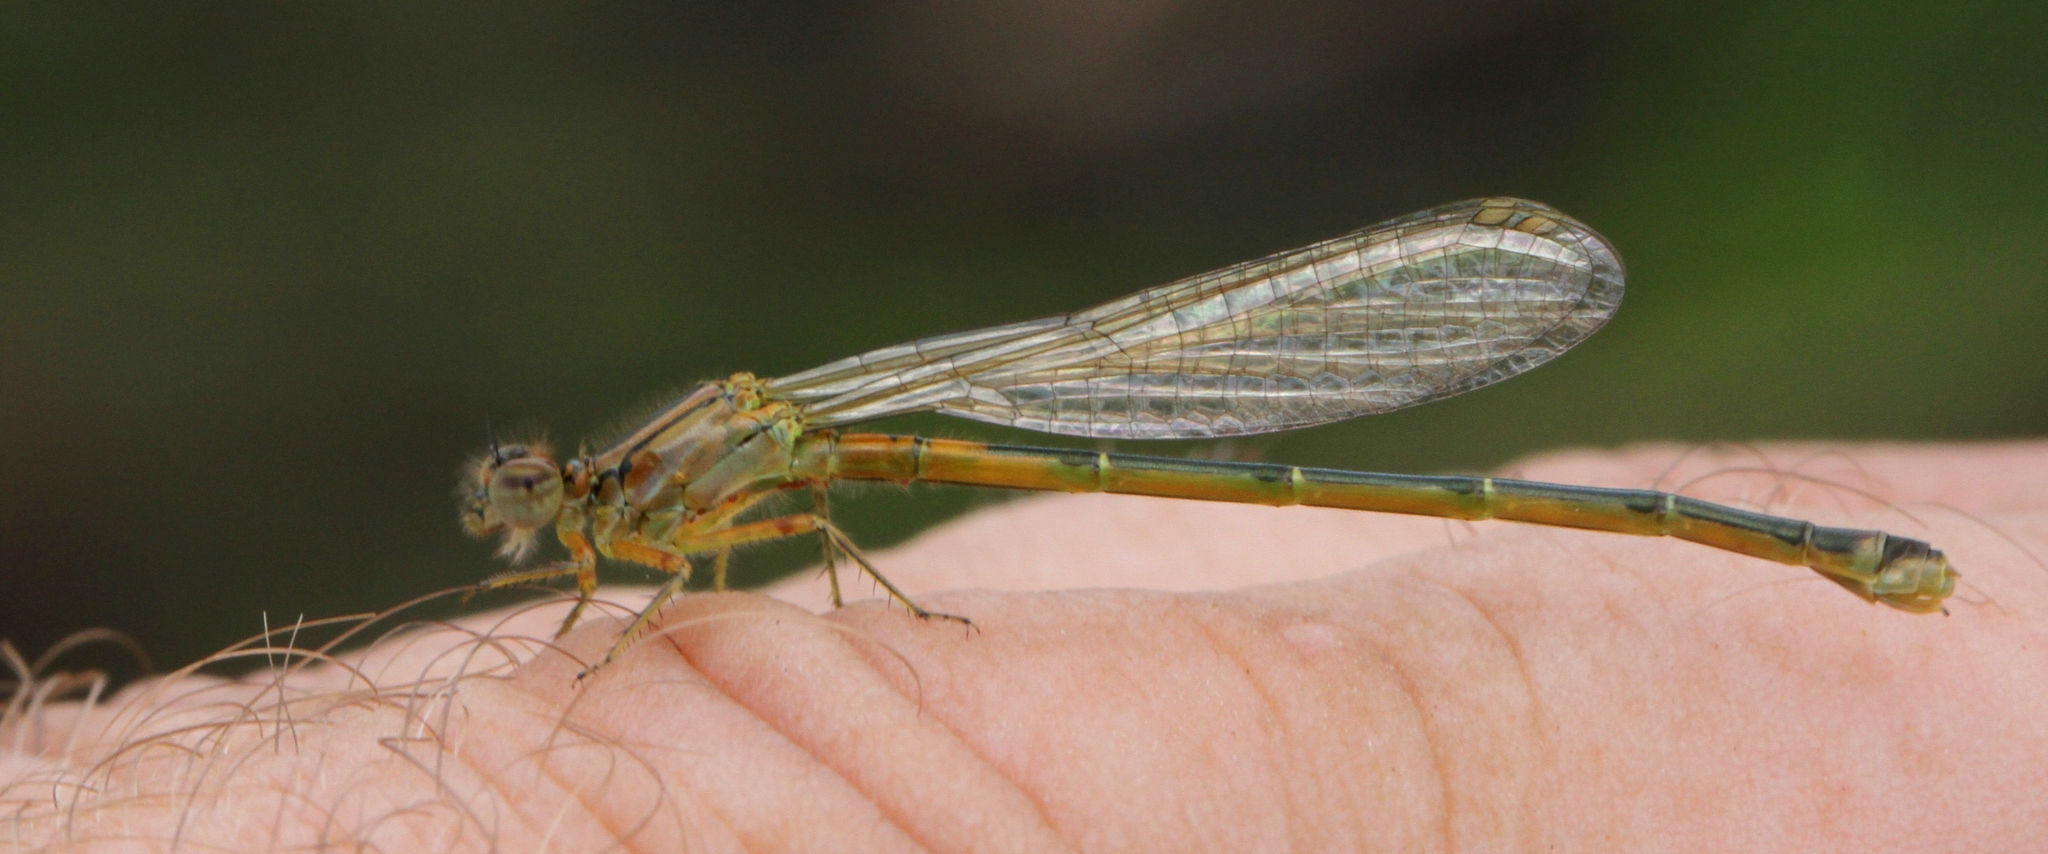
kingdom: Animalia
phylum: Arthropoda
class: Insecta
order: Odonata
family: Coenagrionidae
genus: Ischnura
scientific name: Ischnura verticalis
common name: Eastern forktail
